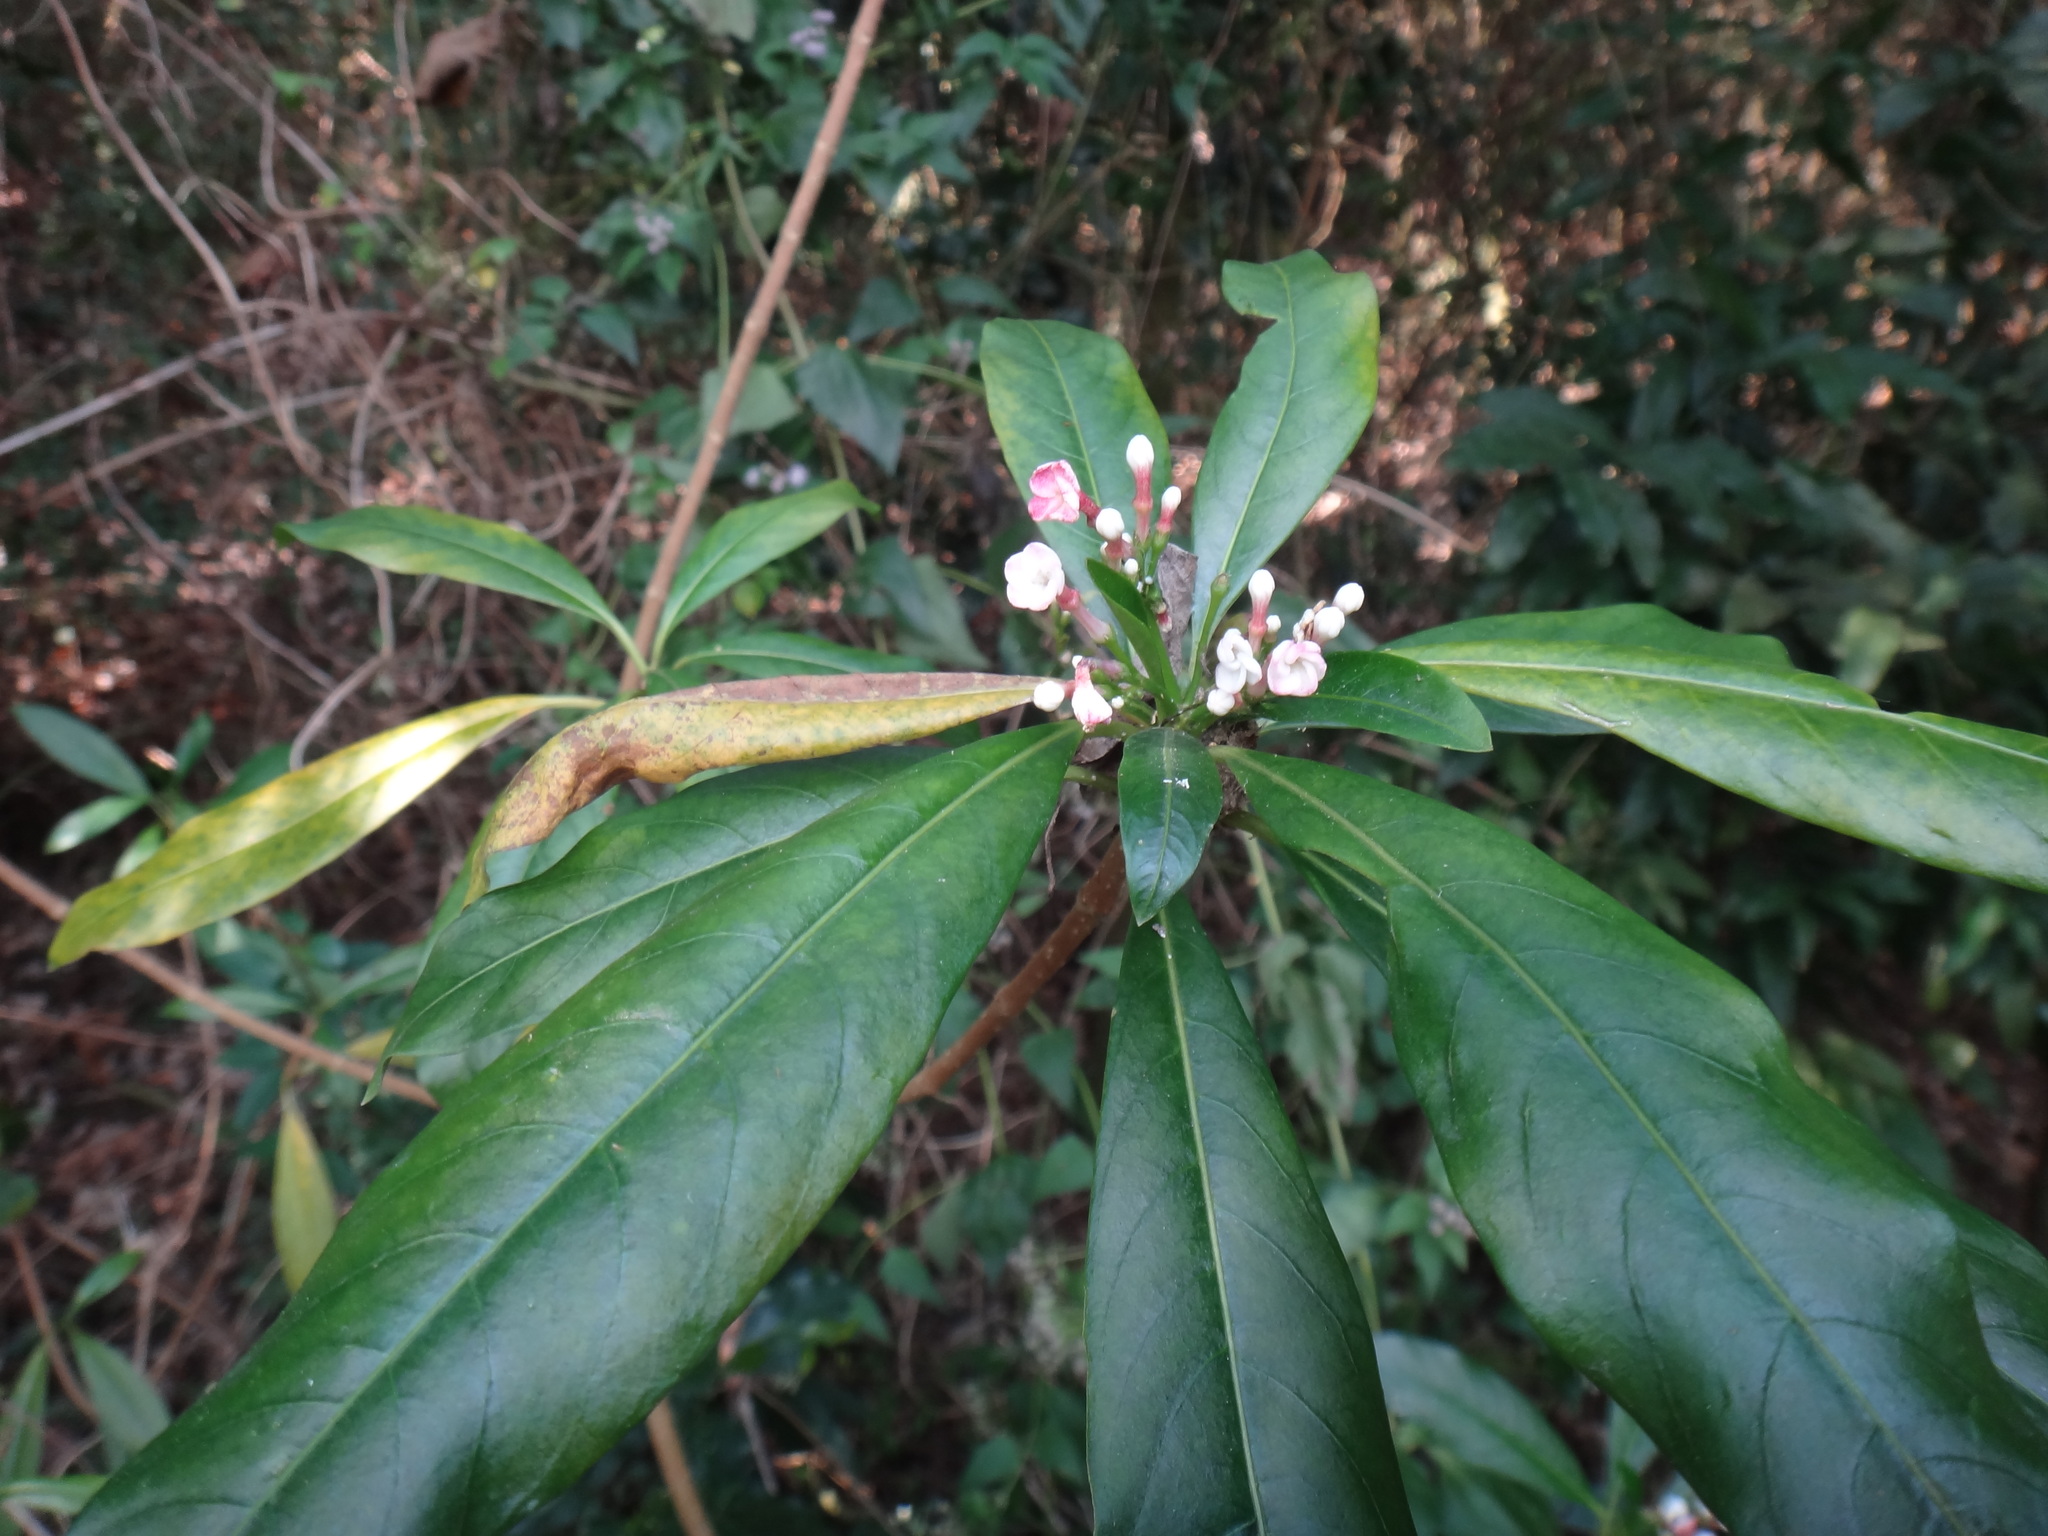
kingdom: Plantae
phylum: Tracheophyta
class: Magnoliopsida
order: Gentianales
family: Apocynaceae
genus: Rauvolfia
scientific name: Rauvolfia verticillata
